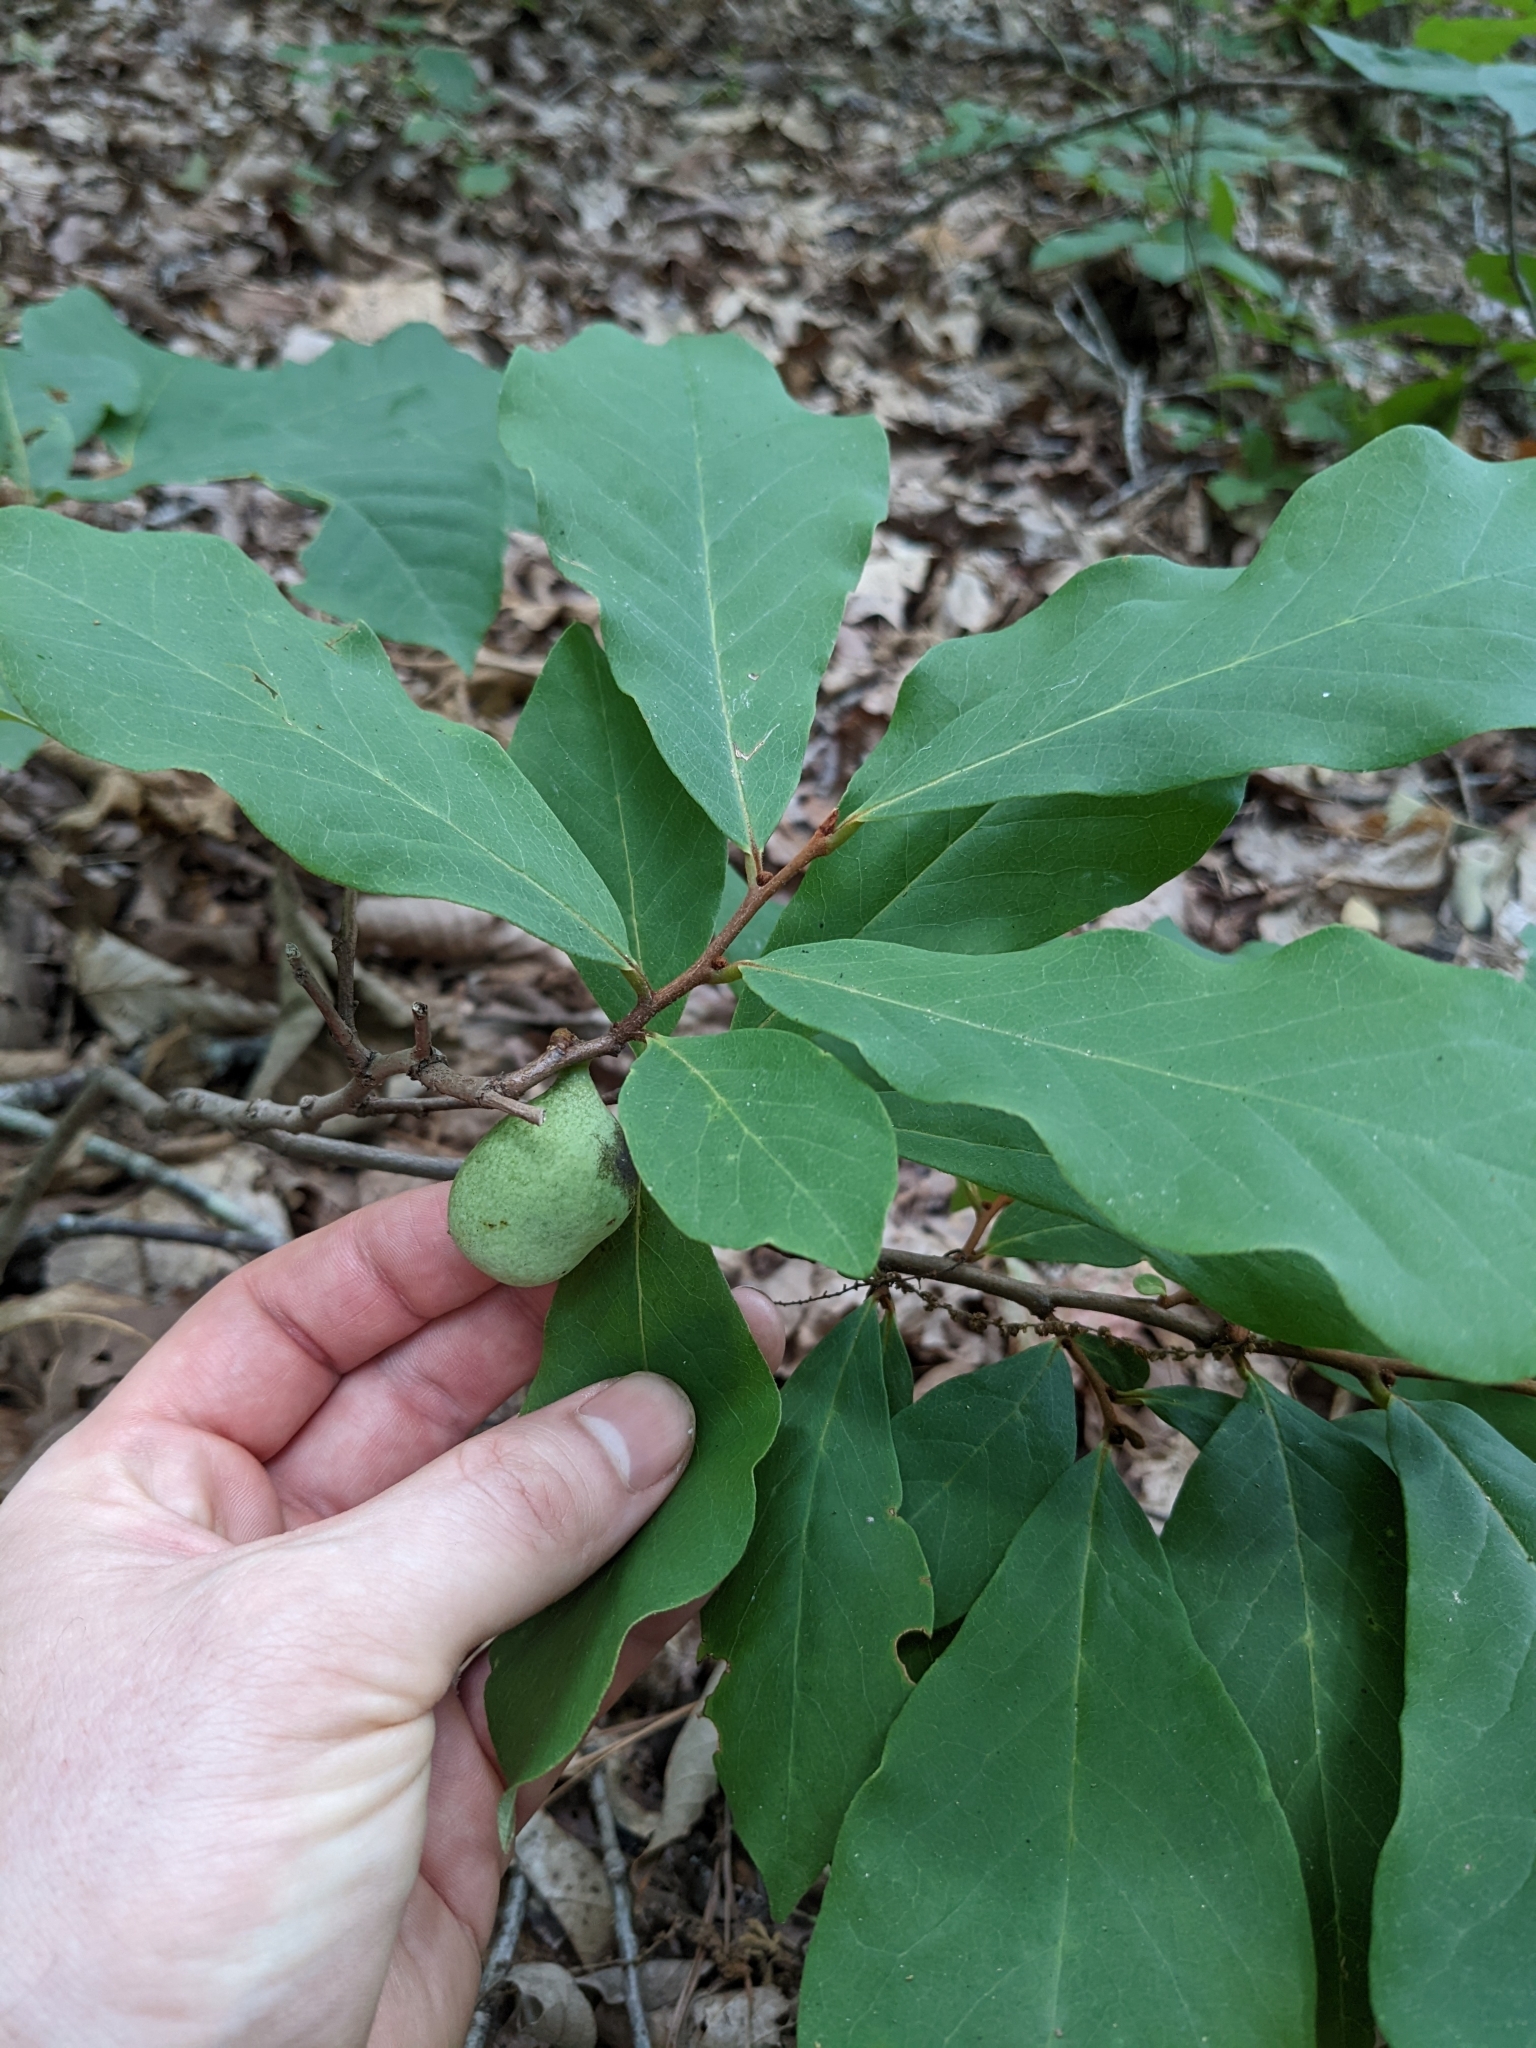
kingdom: Plantae
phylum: Tracheophyta
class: Magnoliopsida
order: Magnoliales
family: Annonaceae
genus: Asimina
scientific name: Asimina parviflora
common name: Dwarf pawpaw
